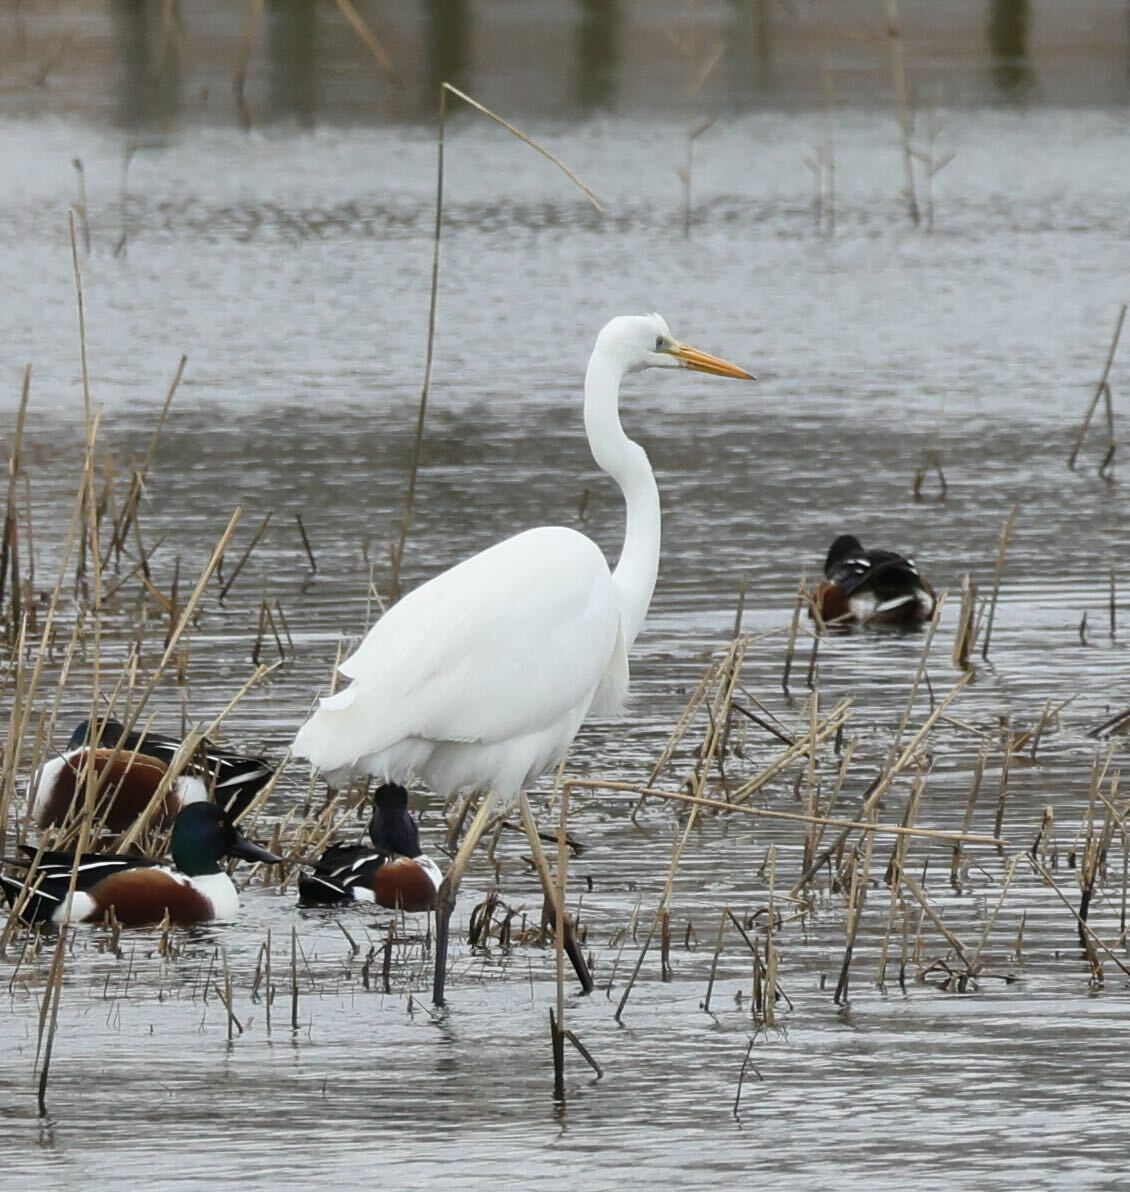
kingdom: Animalia
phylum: Chordata
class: Aves
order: Pelecaniformes
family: Ardeidae
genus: Ardea
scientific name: Ardea alba
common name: Great egret
